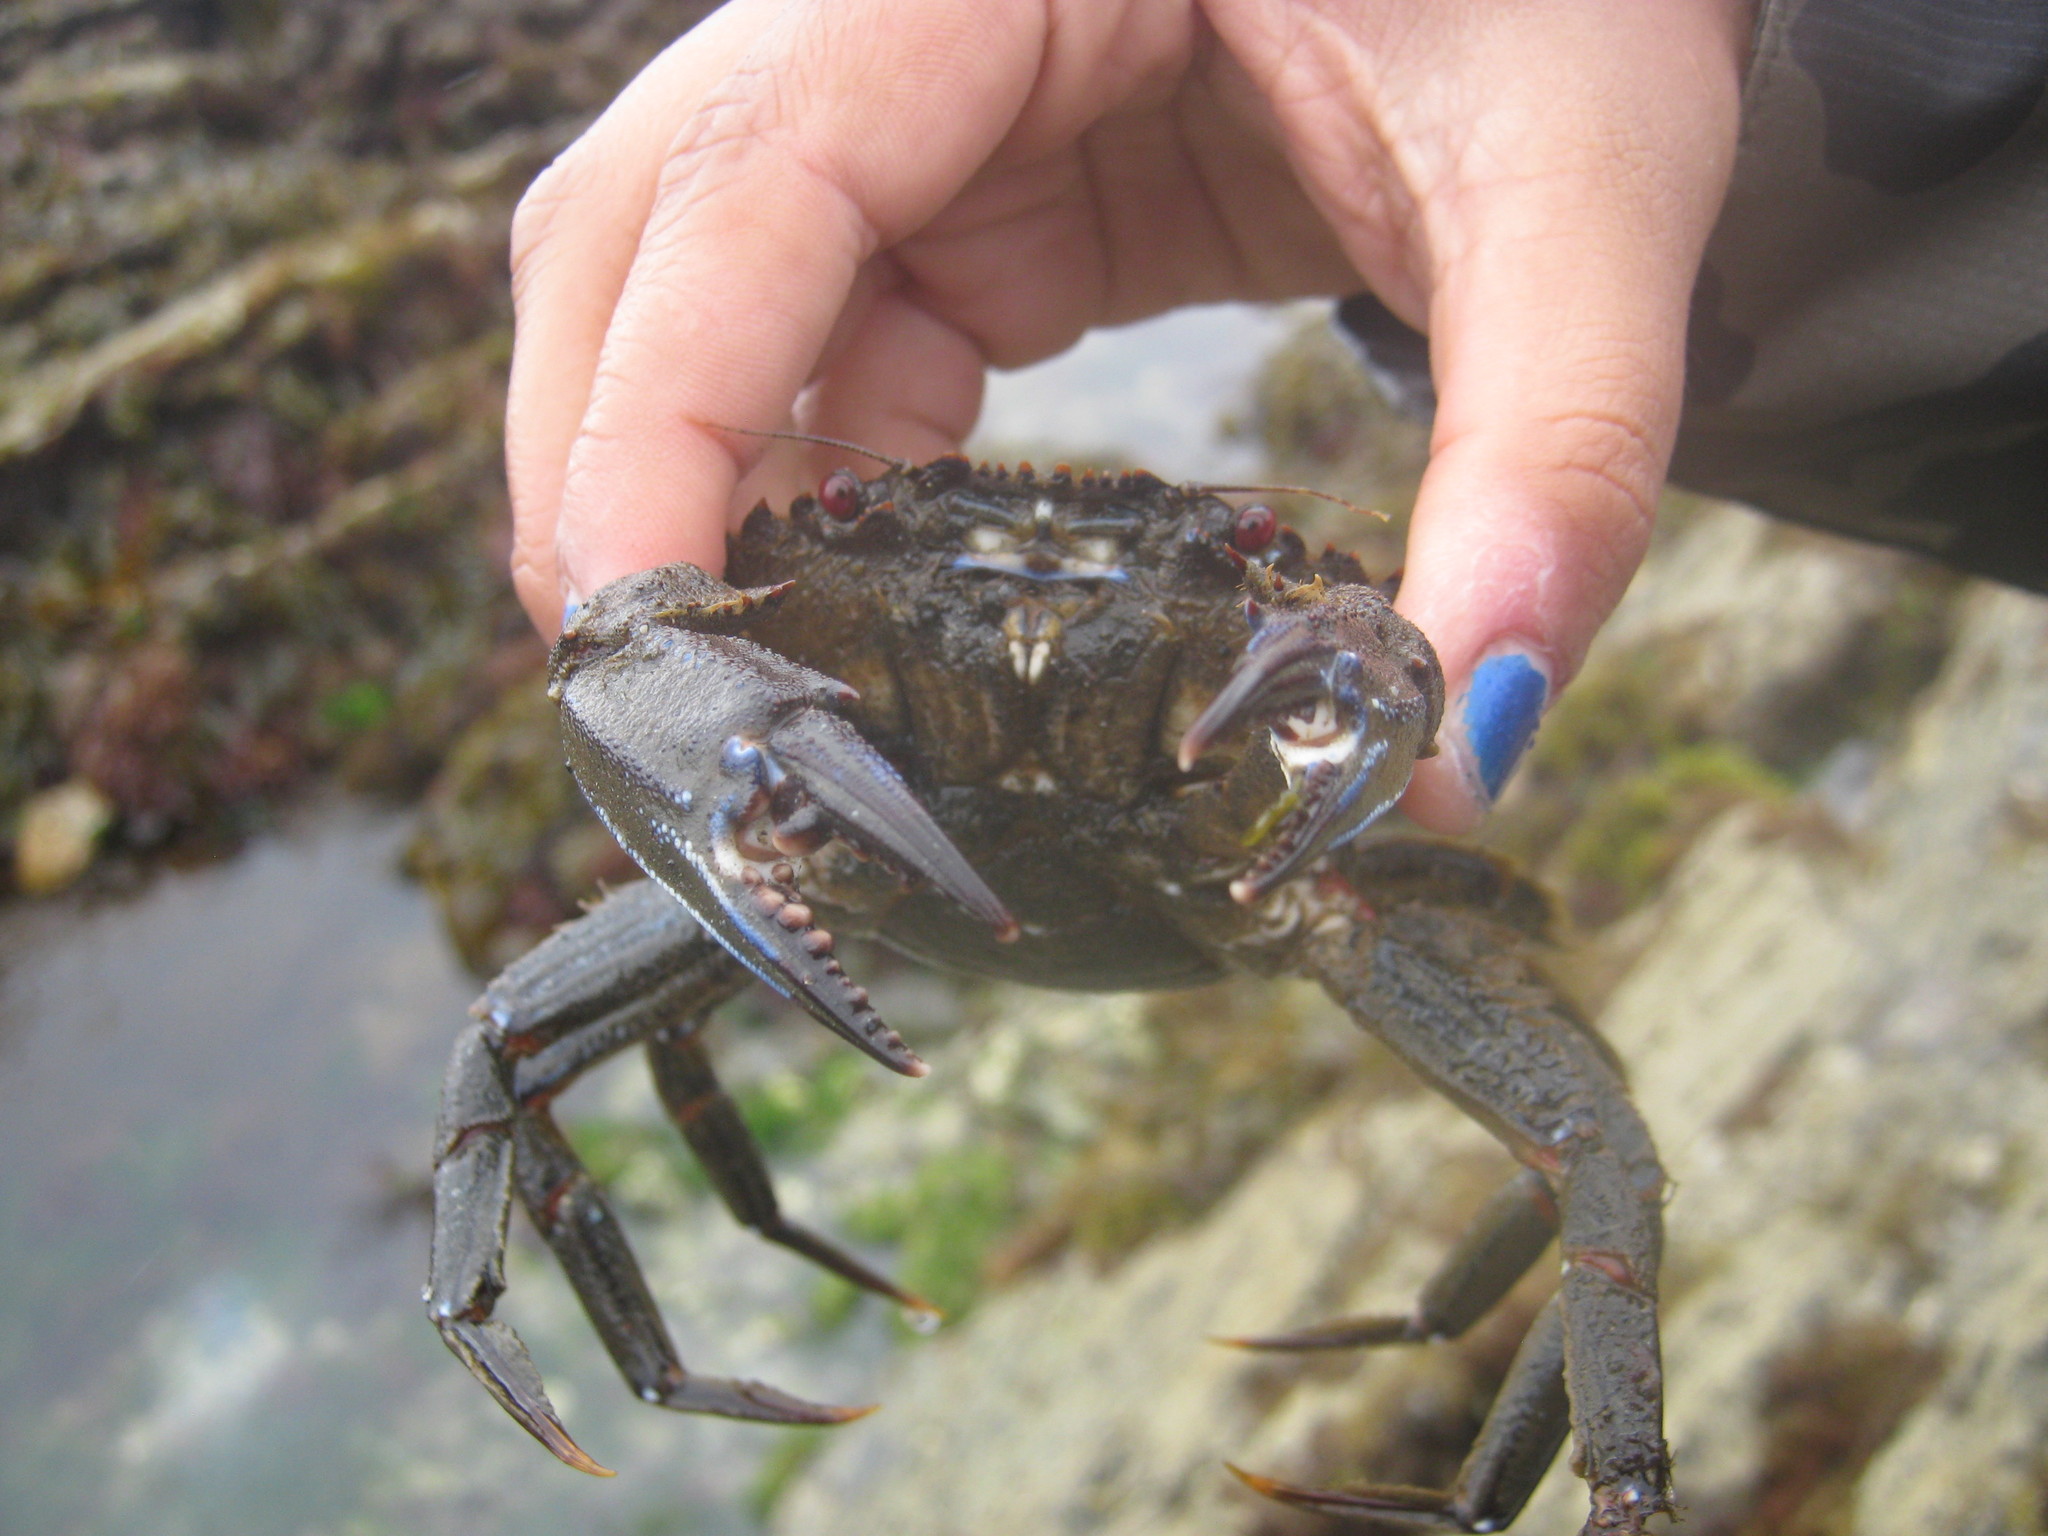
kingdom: Animalia
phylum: Arthropoda
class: Malacostraca
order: Decapoda
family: Polybiidae
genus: Necora
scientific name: Necora puber
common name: Velvet swimming crab
